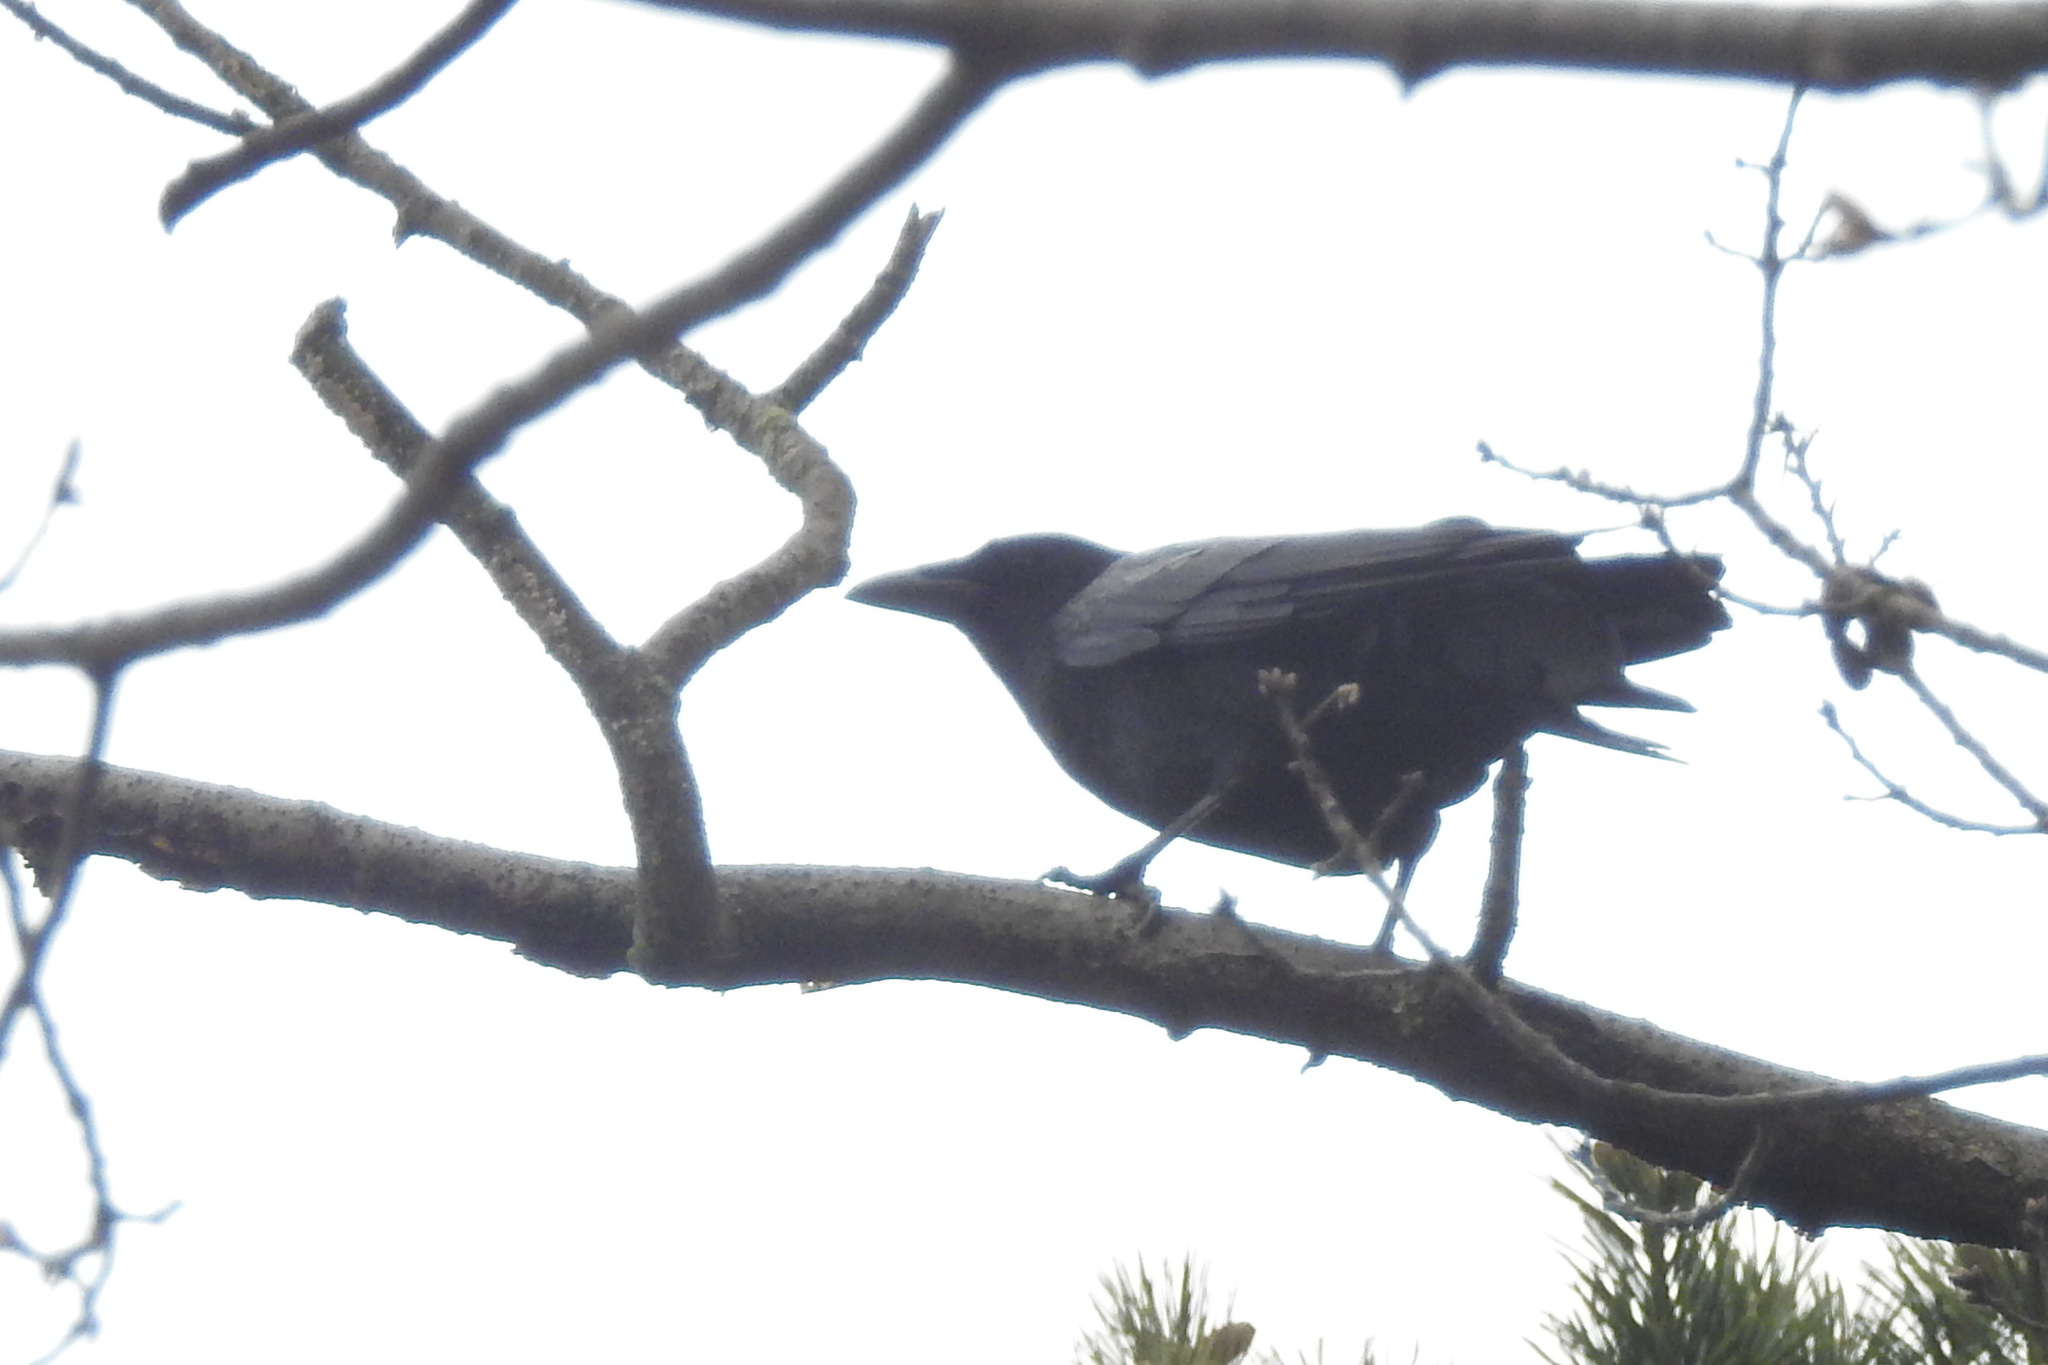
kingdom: Animalia
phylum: Chordata
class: Aves
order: Passeriformes
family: Corvidae
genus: Corvus
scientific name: Corvus brachyrhynchos
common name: American crow
